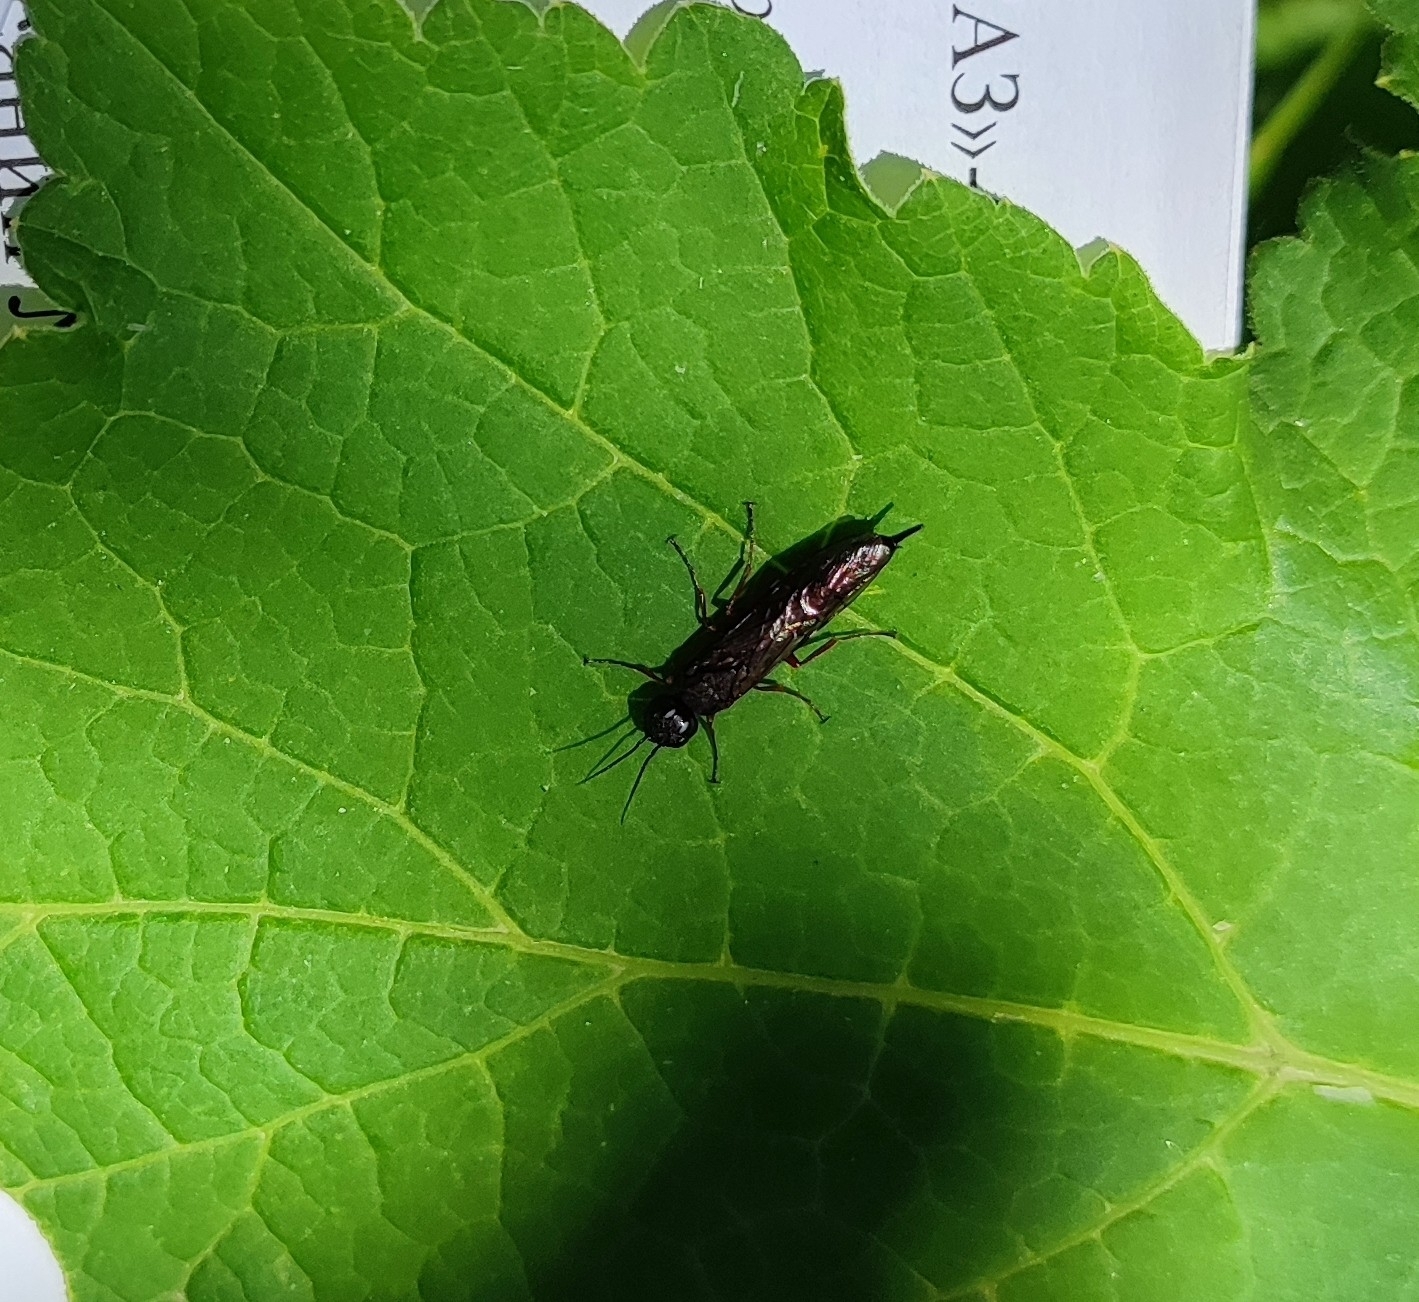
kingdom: Animalia
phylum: Arthropoda
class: Insecta
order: Hymenoptera
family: Xiphydriidae
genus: Xiphydria
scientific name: Xiphydria camelus
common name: Alder wood-wasp
